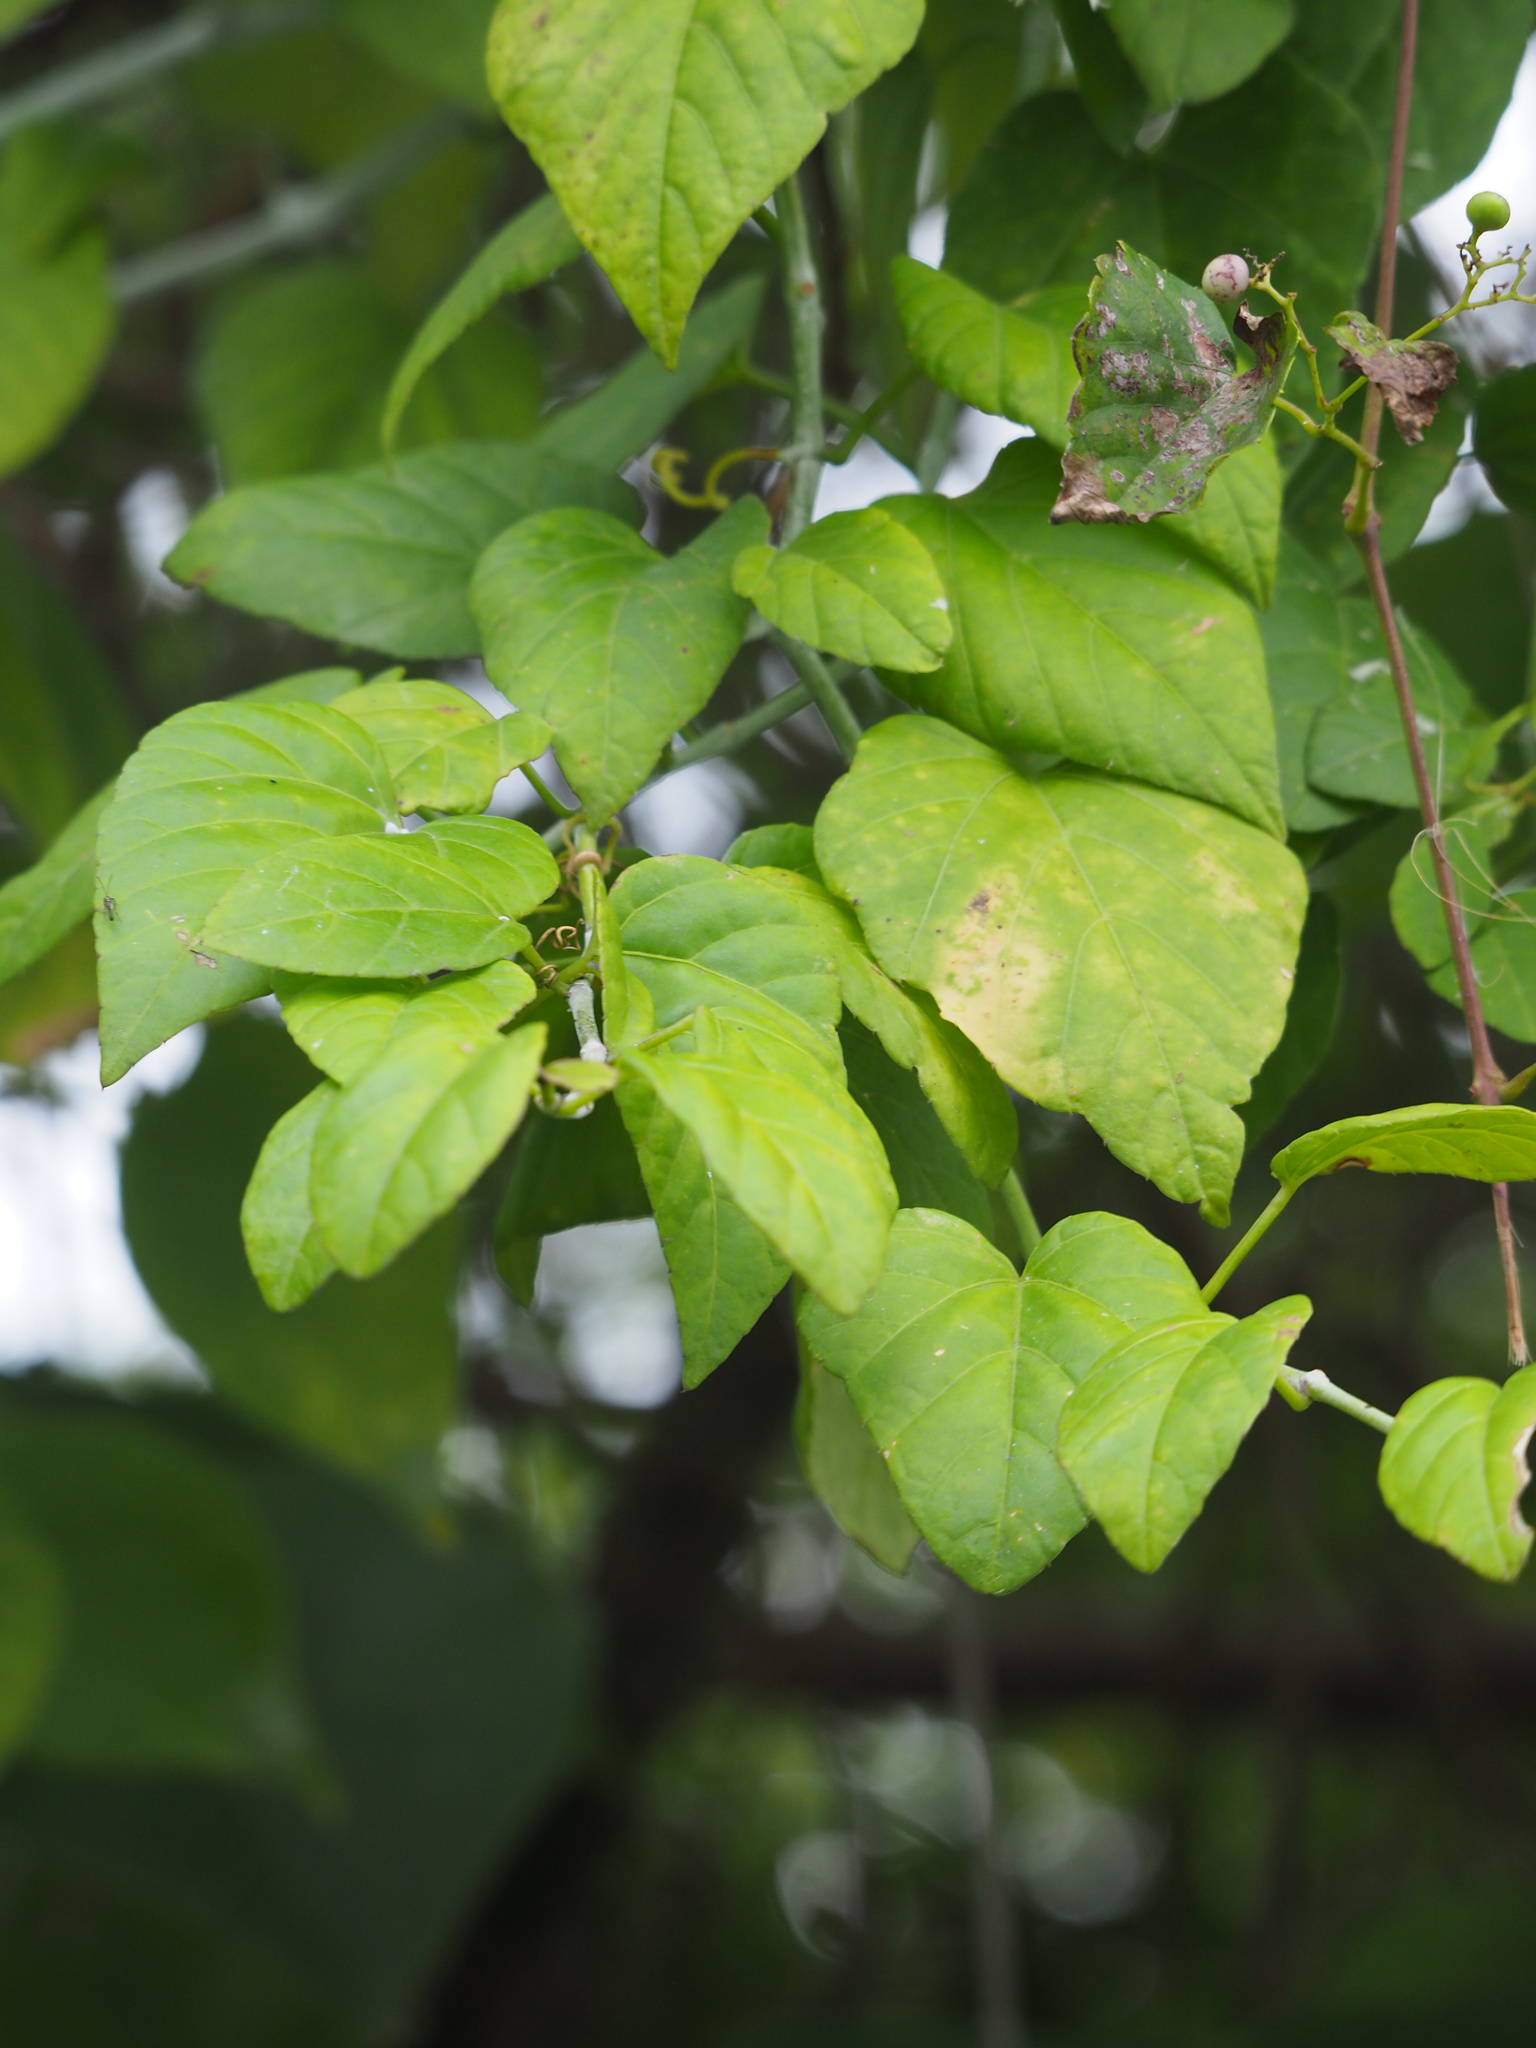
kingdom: Plantae
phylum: Tracheophyta
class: Magnoliopsida
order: Vitales
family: Vitaceae
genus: Cissus
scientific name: Cissus modeccoides
